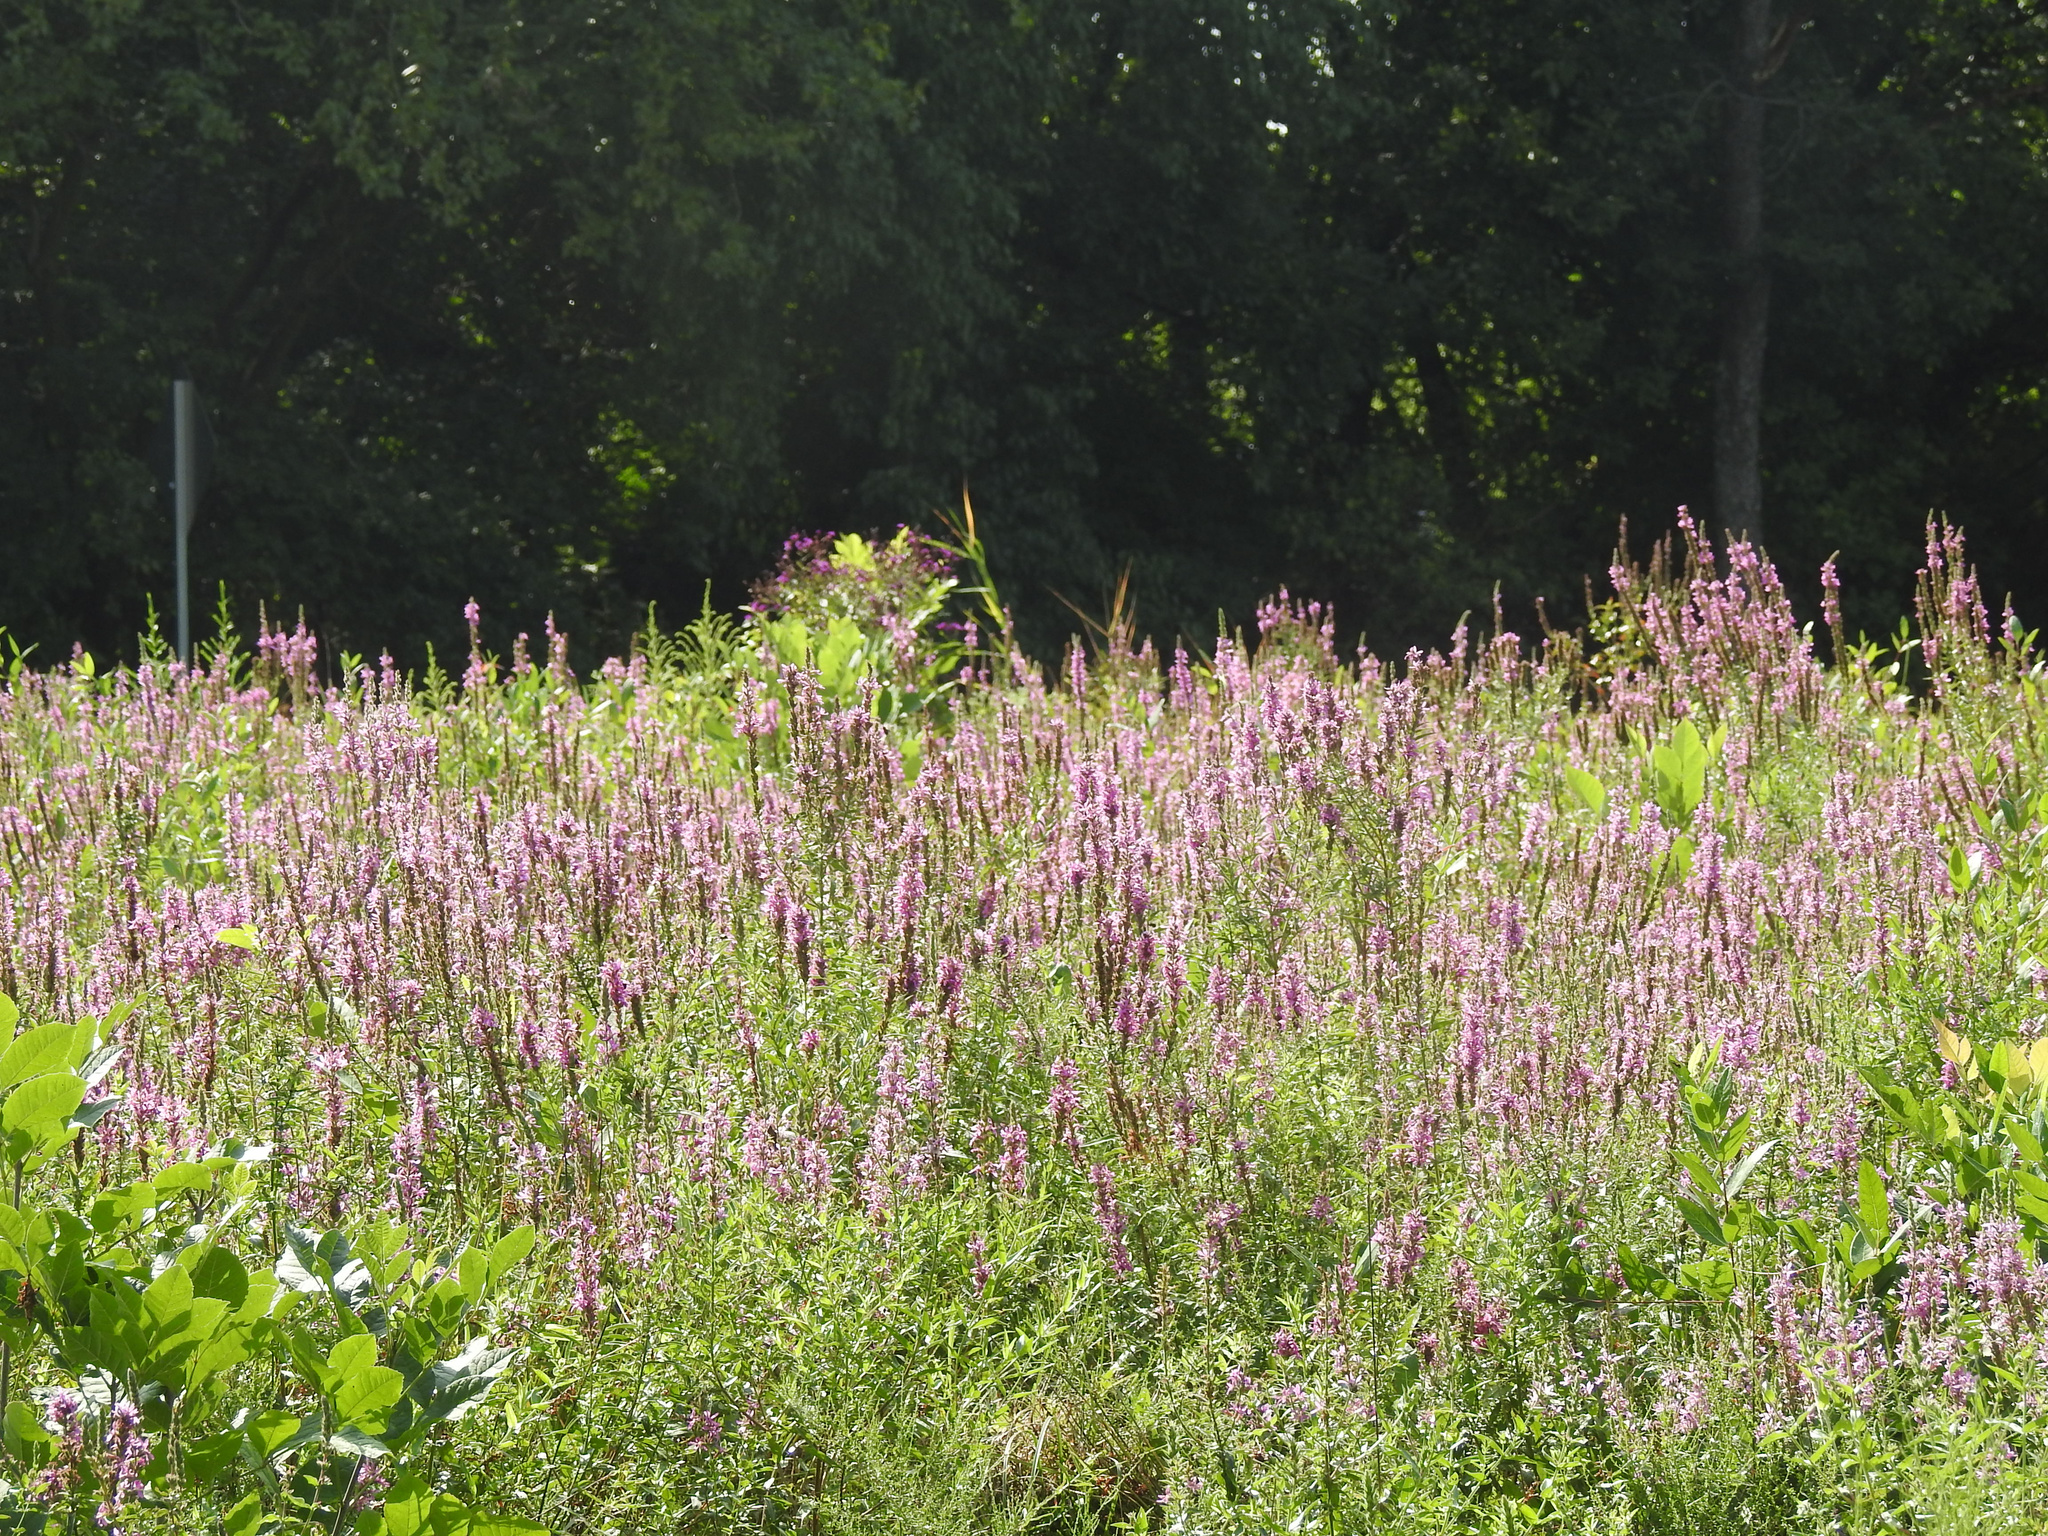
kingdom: Plantae
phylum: Tracheophyta
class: Magnoliopsida
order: Myrtales
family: Lythraceae
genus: Lythrum
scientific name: Lythrum salicaria
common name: Purple loosestrife
